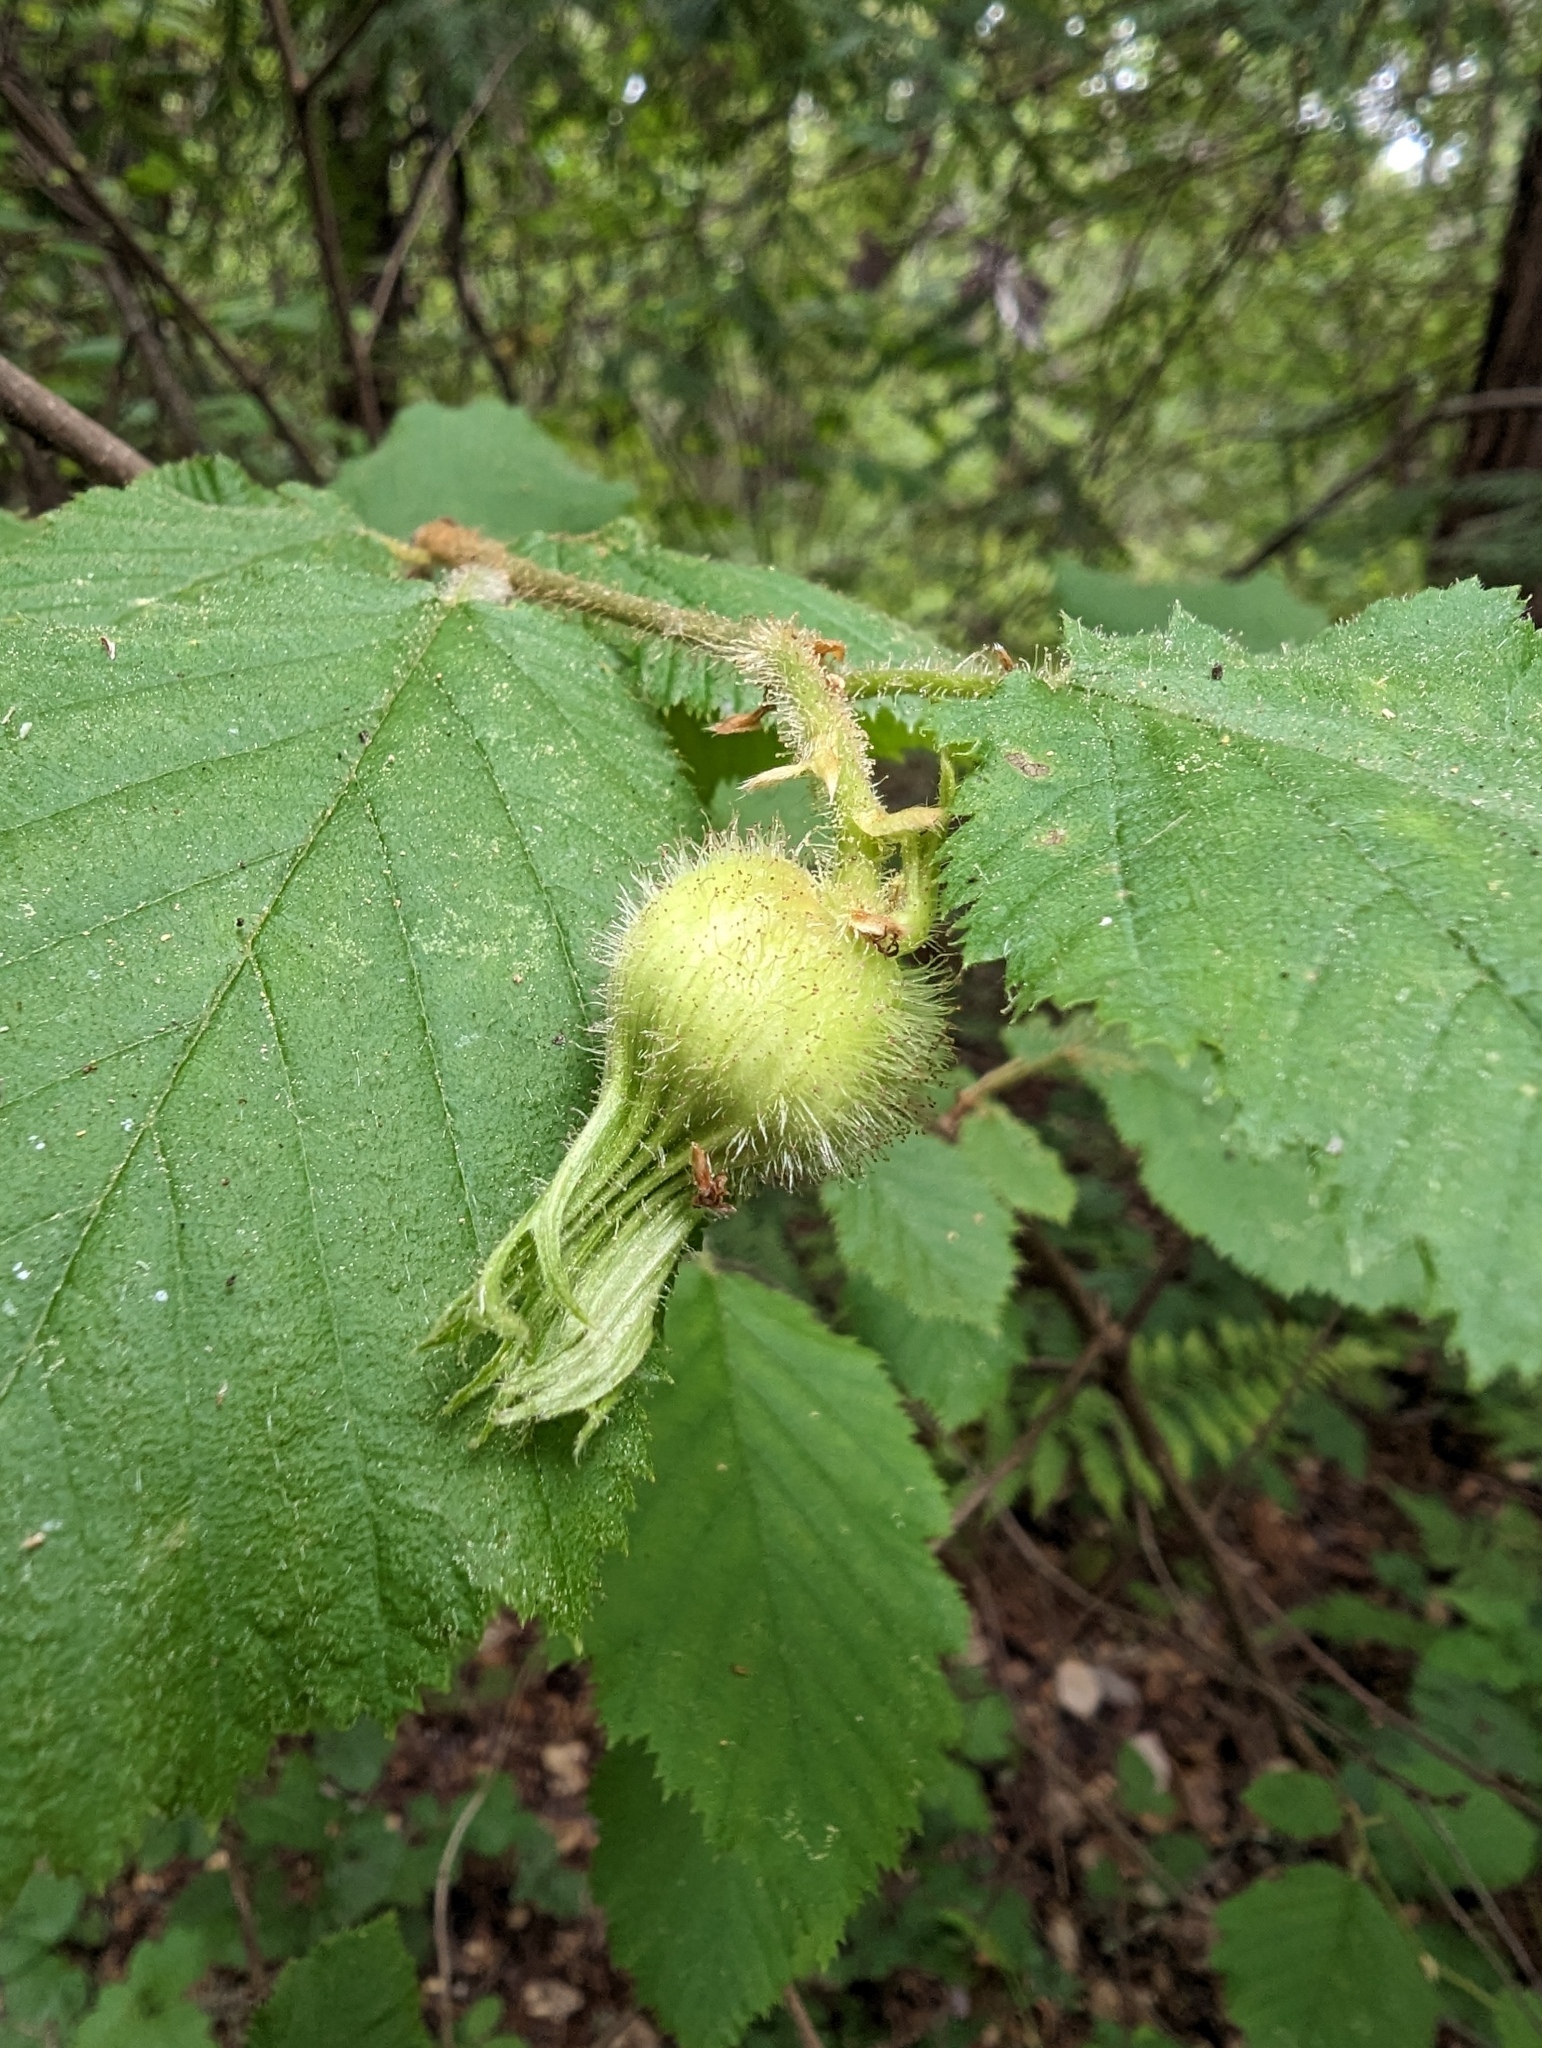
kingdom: Plantae
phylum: Tracheophyta
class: Magnoliopsida
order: Fagales
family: Betulaceae
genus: Corylus
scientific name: Corylus cornuta
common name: Beaked hazel
